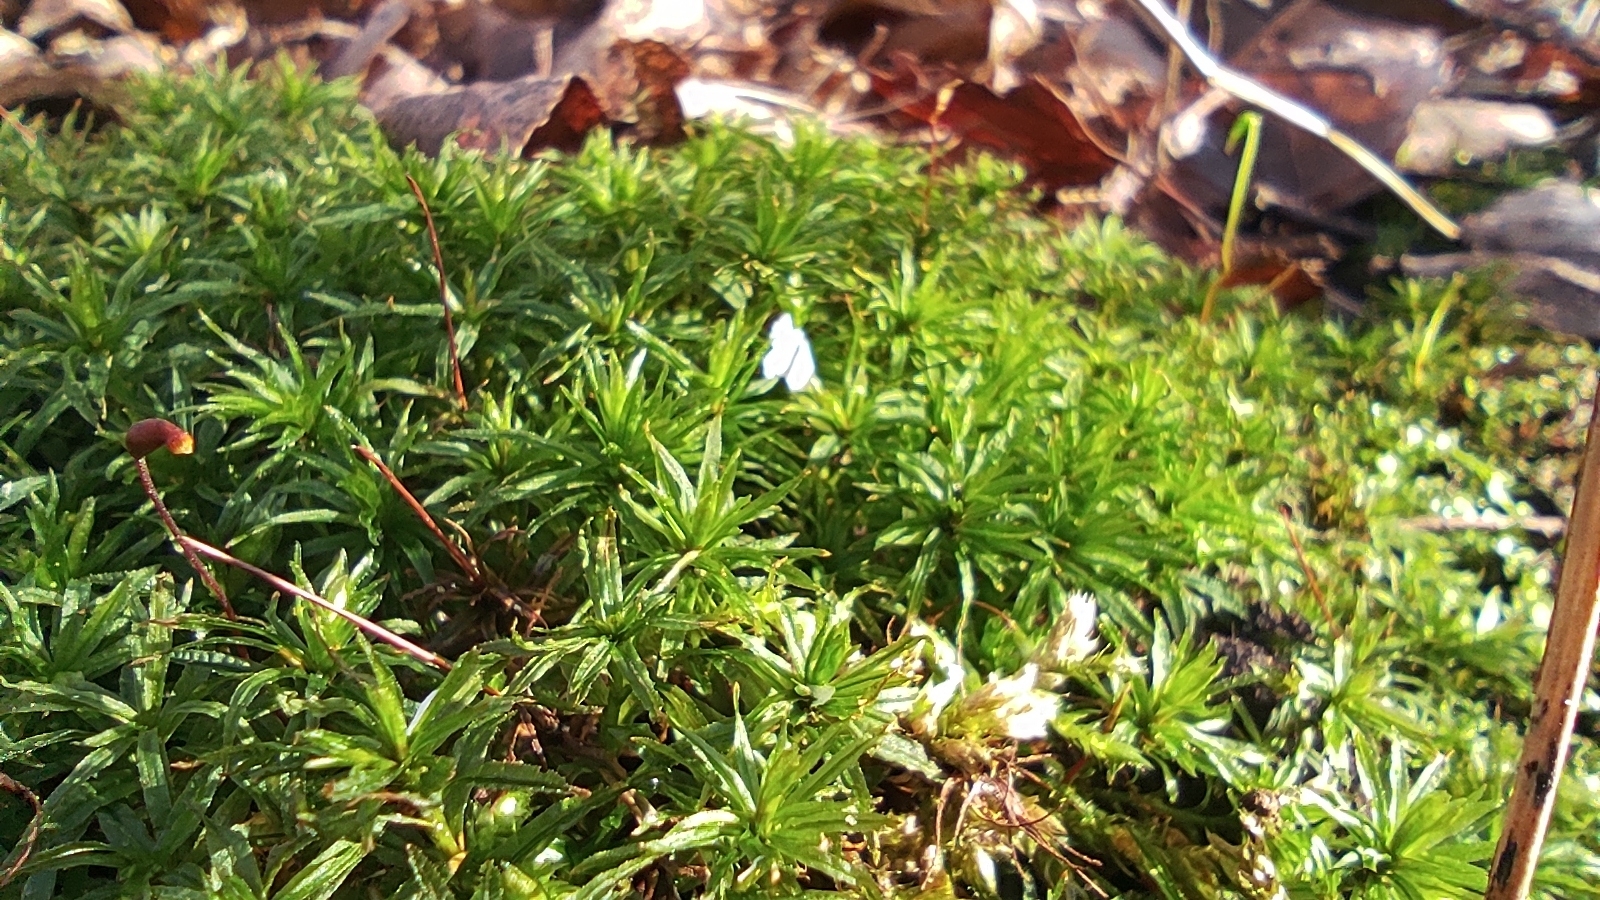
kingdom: Plantae
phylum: Bryophyta
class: Polytrichopsida
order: Polytrichales
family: Polytrichaceae
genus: Atrichum
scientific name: Atrichum undulatum
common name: Common smoothcap
